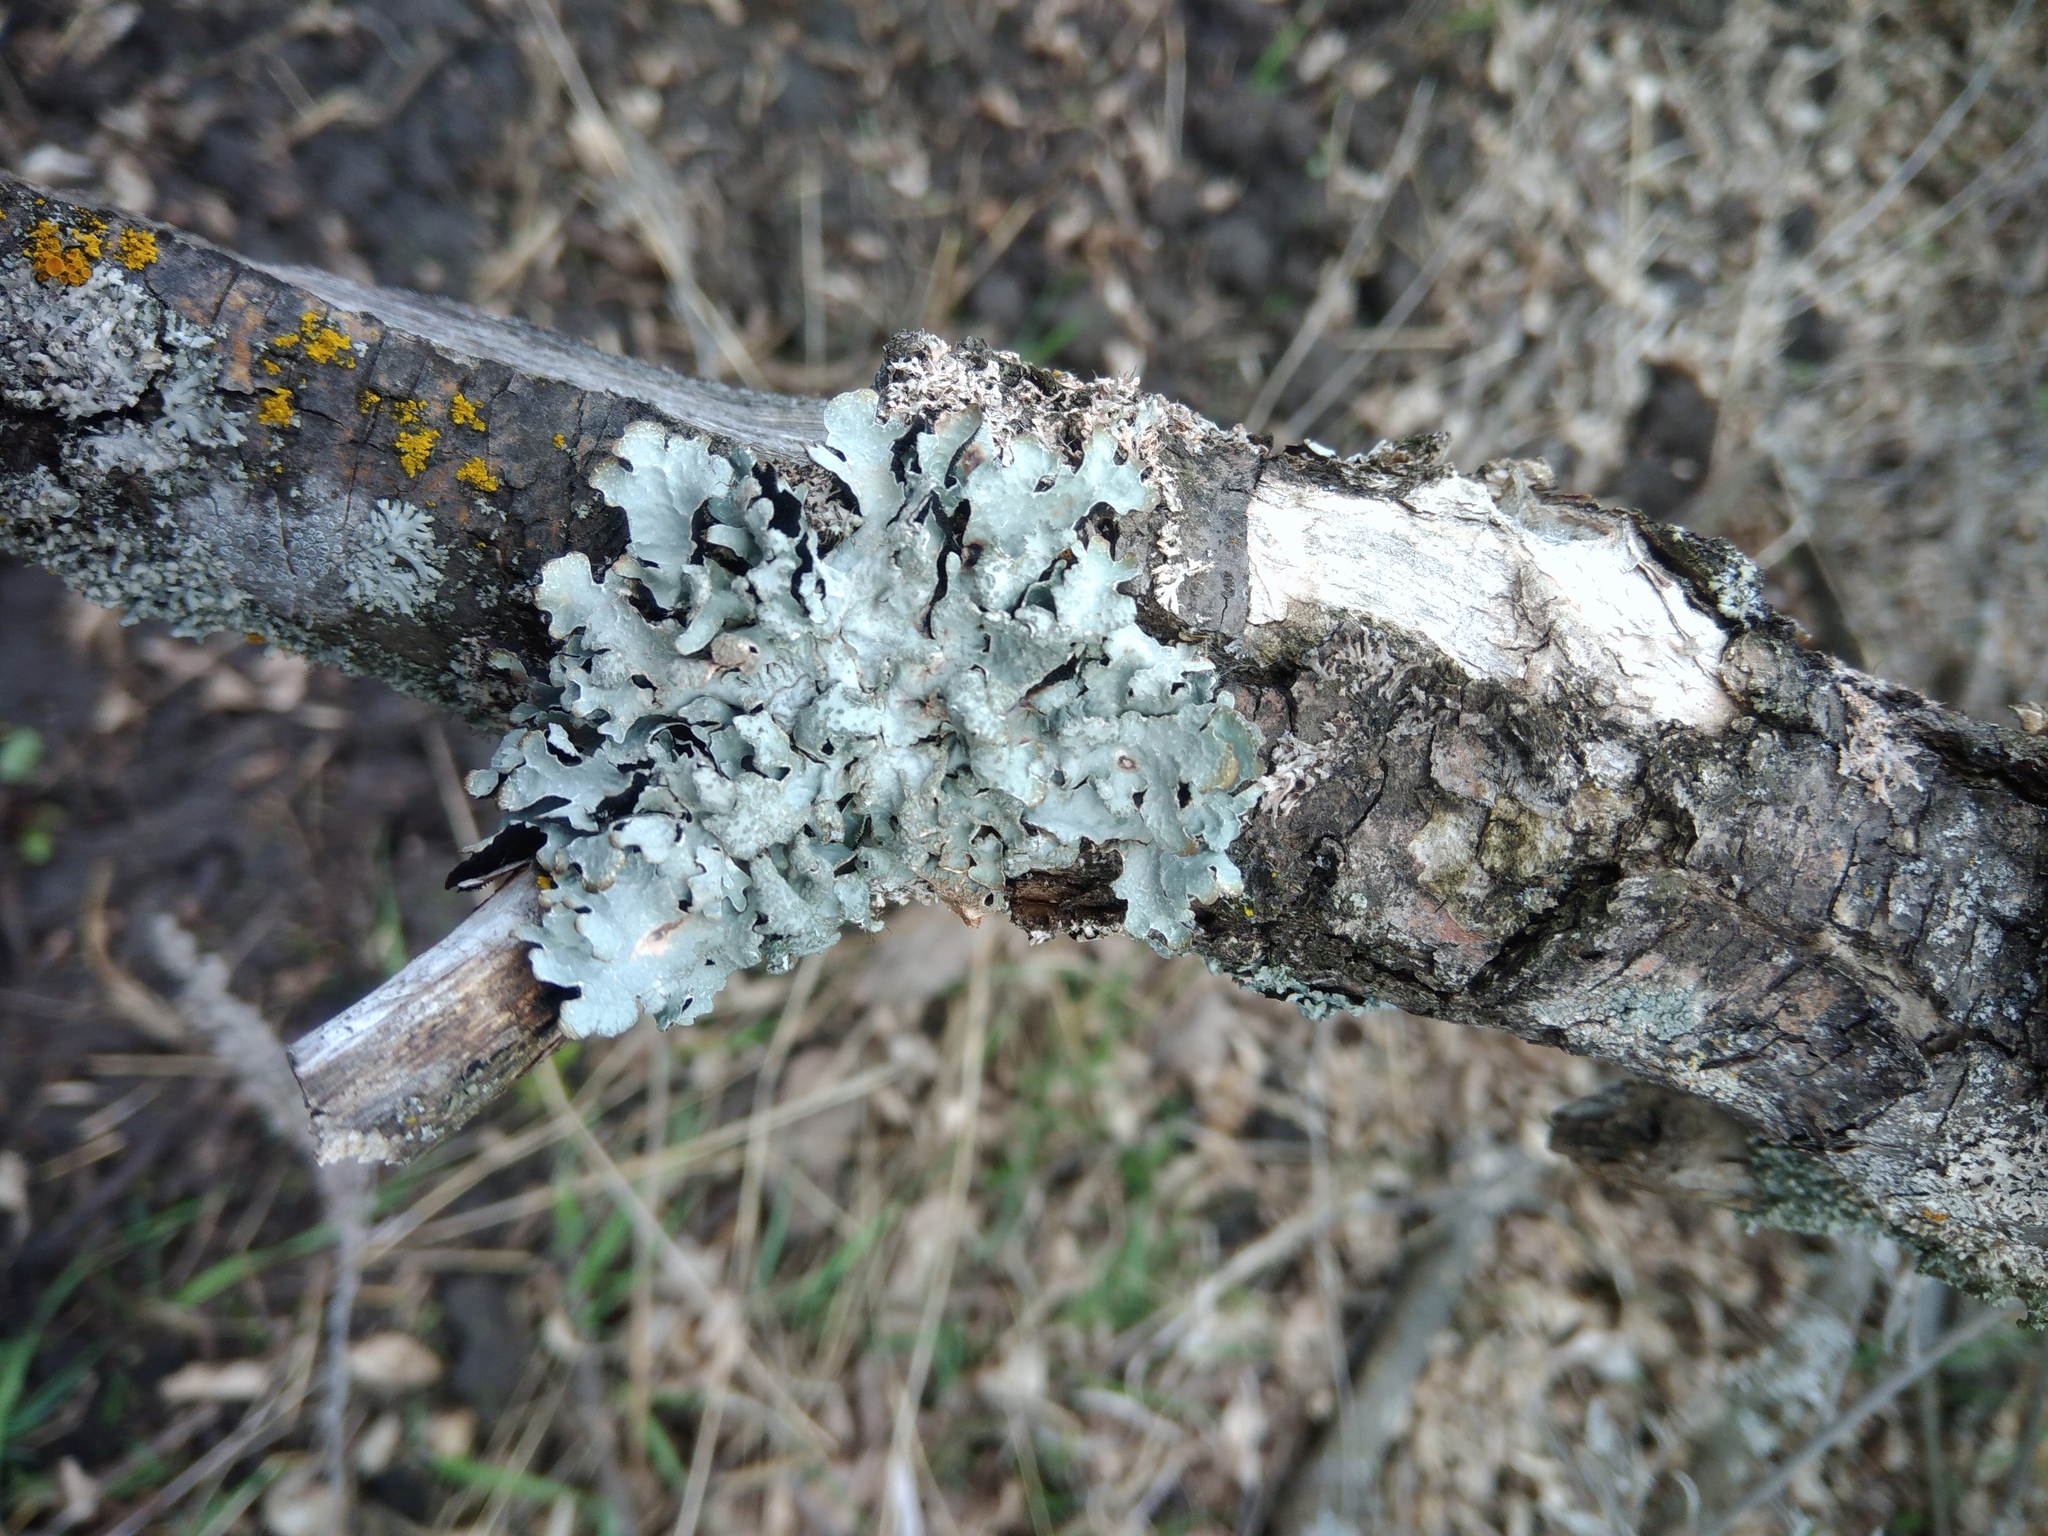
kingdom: Fungi
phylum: Ascomycota
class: Lecanoromycetes
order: Lecanorales
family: Parmeliaceae
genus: Parmelia
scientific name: Parmelia sulcata
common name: Netted shield lichen
